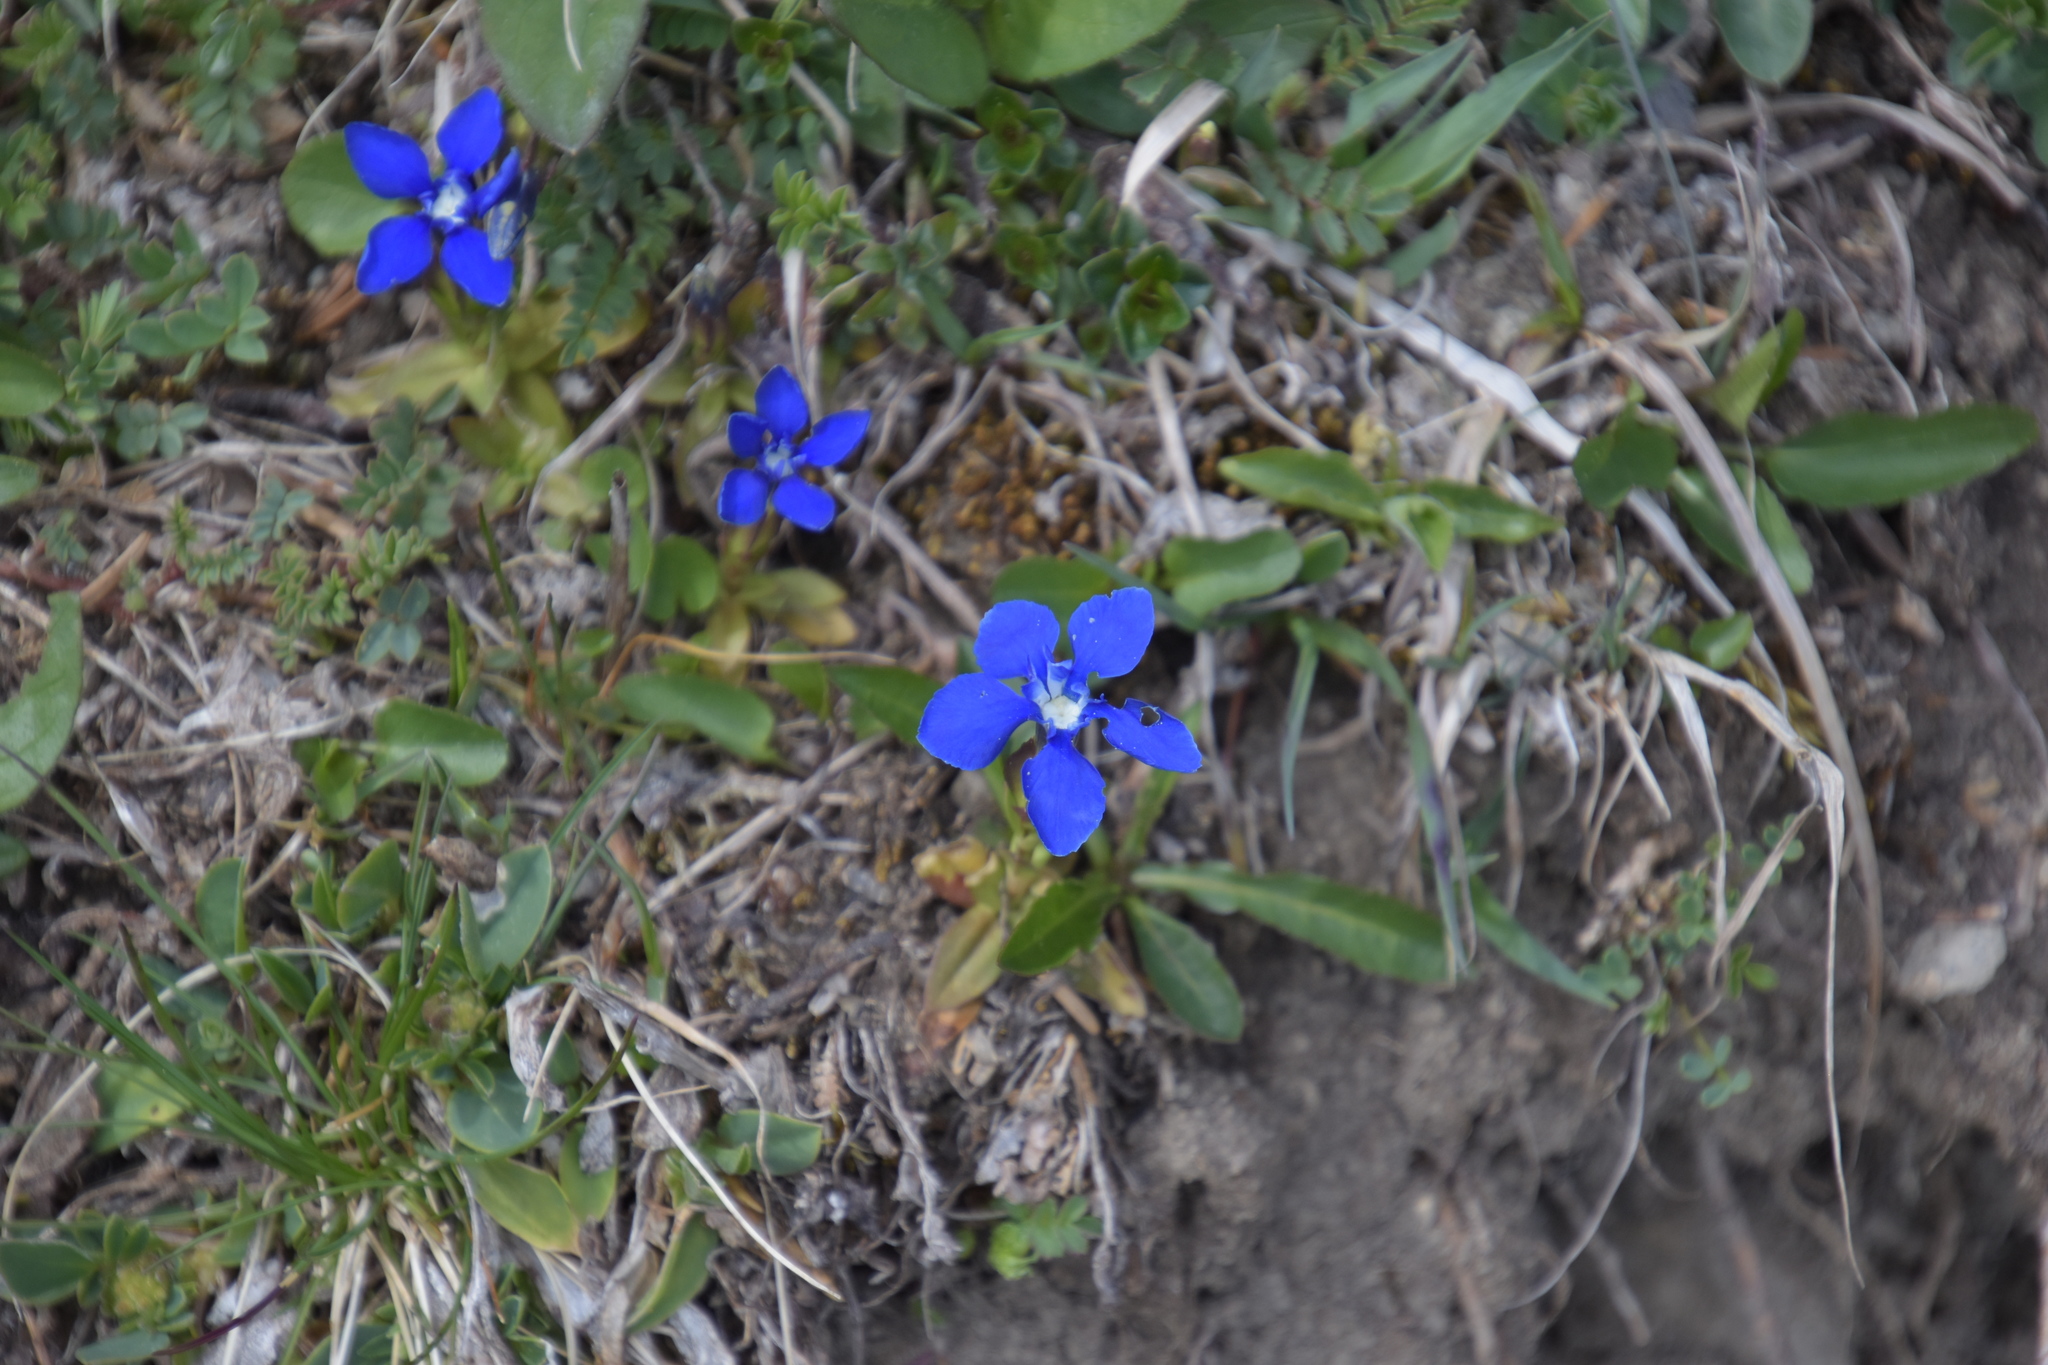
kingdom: Plantae
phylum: Tracheophyta
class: Magnoliopsida
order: Gentianales
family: Gentianaceae
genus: Gentiana
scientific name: Gentiana verna
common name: Spring gentian
